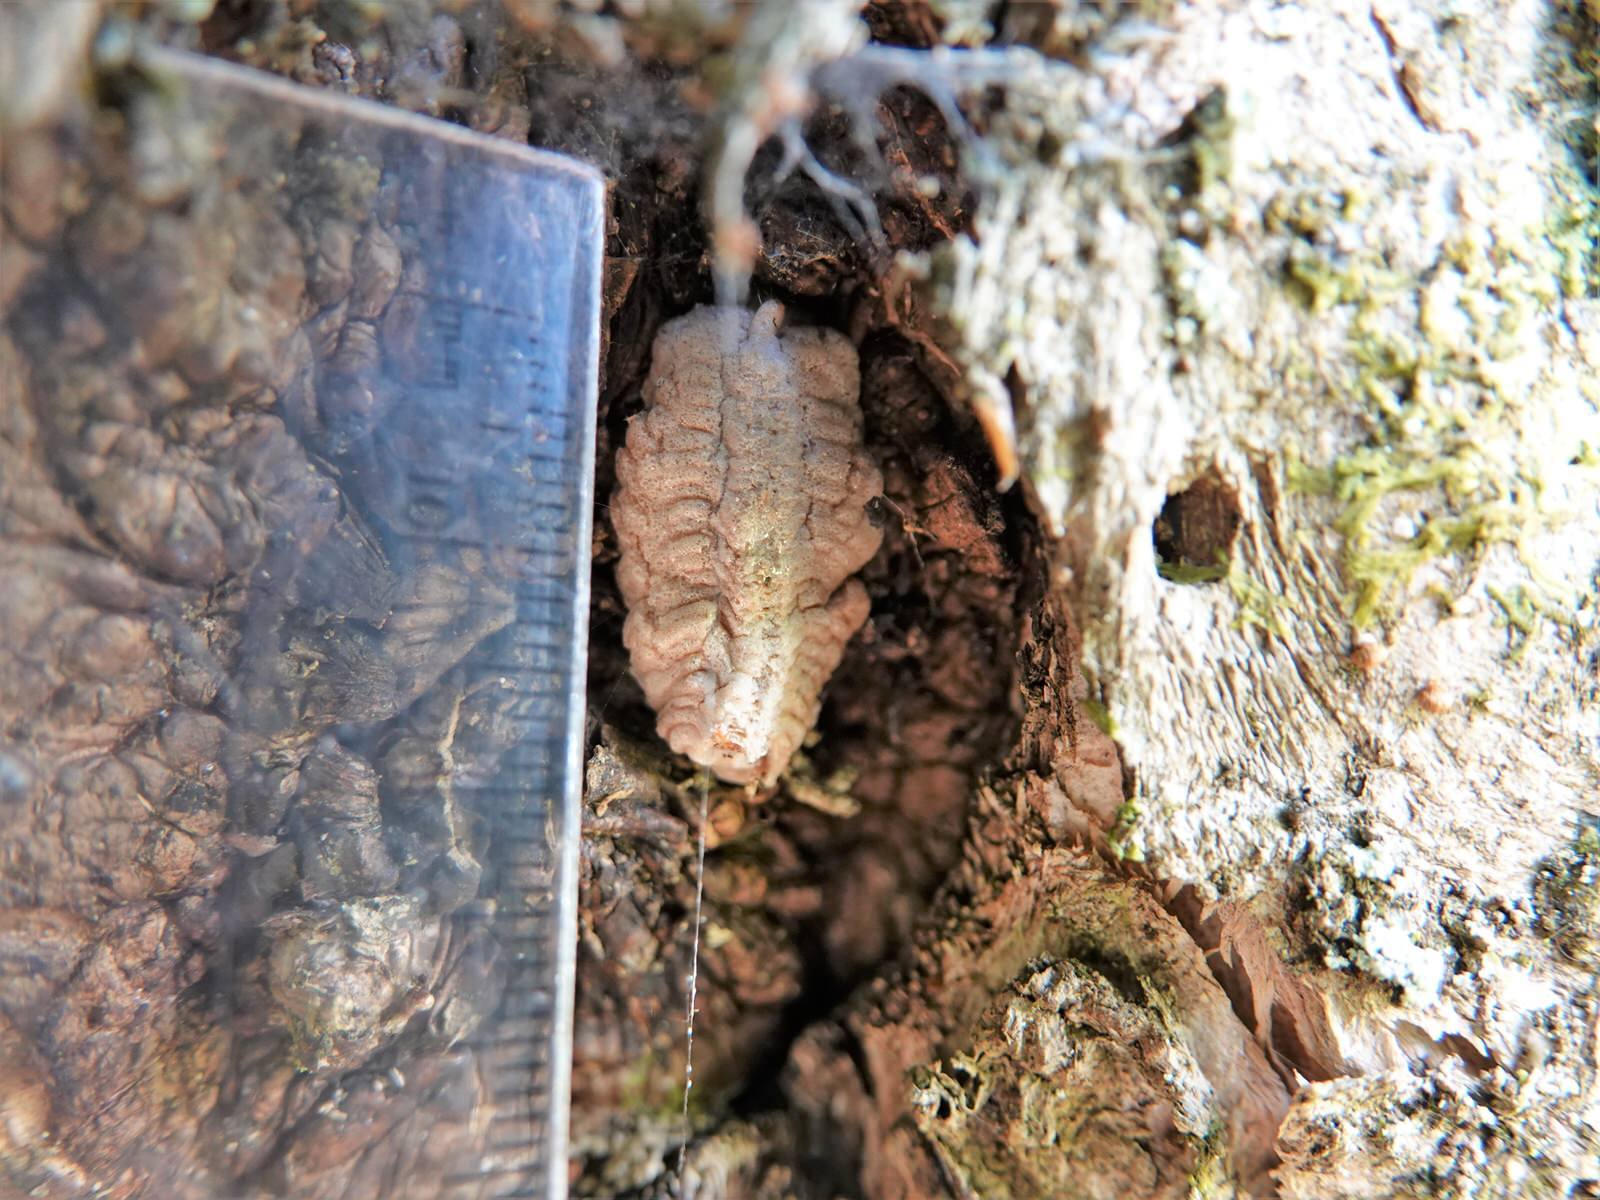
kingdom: Animalia
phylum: Arthropoda
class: Insecta
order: Mantodea
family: Miomantidae
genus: Miomantis
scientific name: Miomantis caffra
